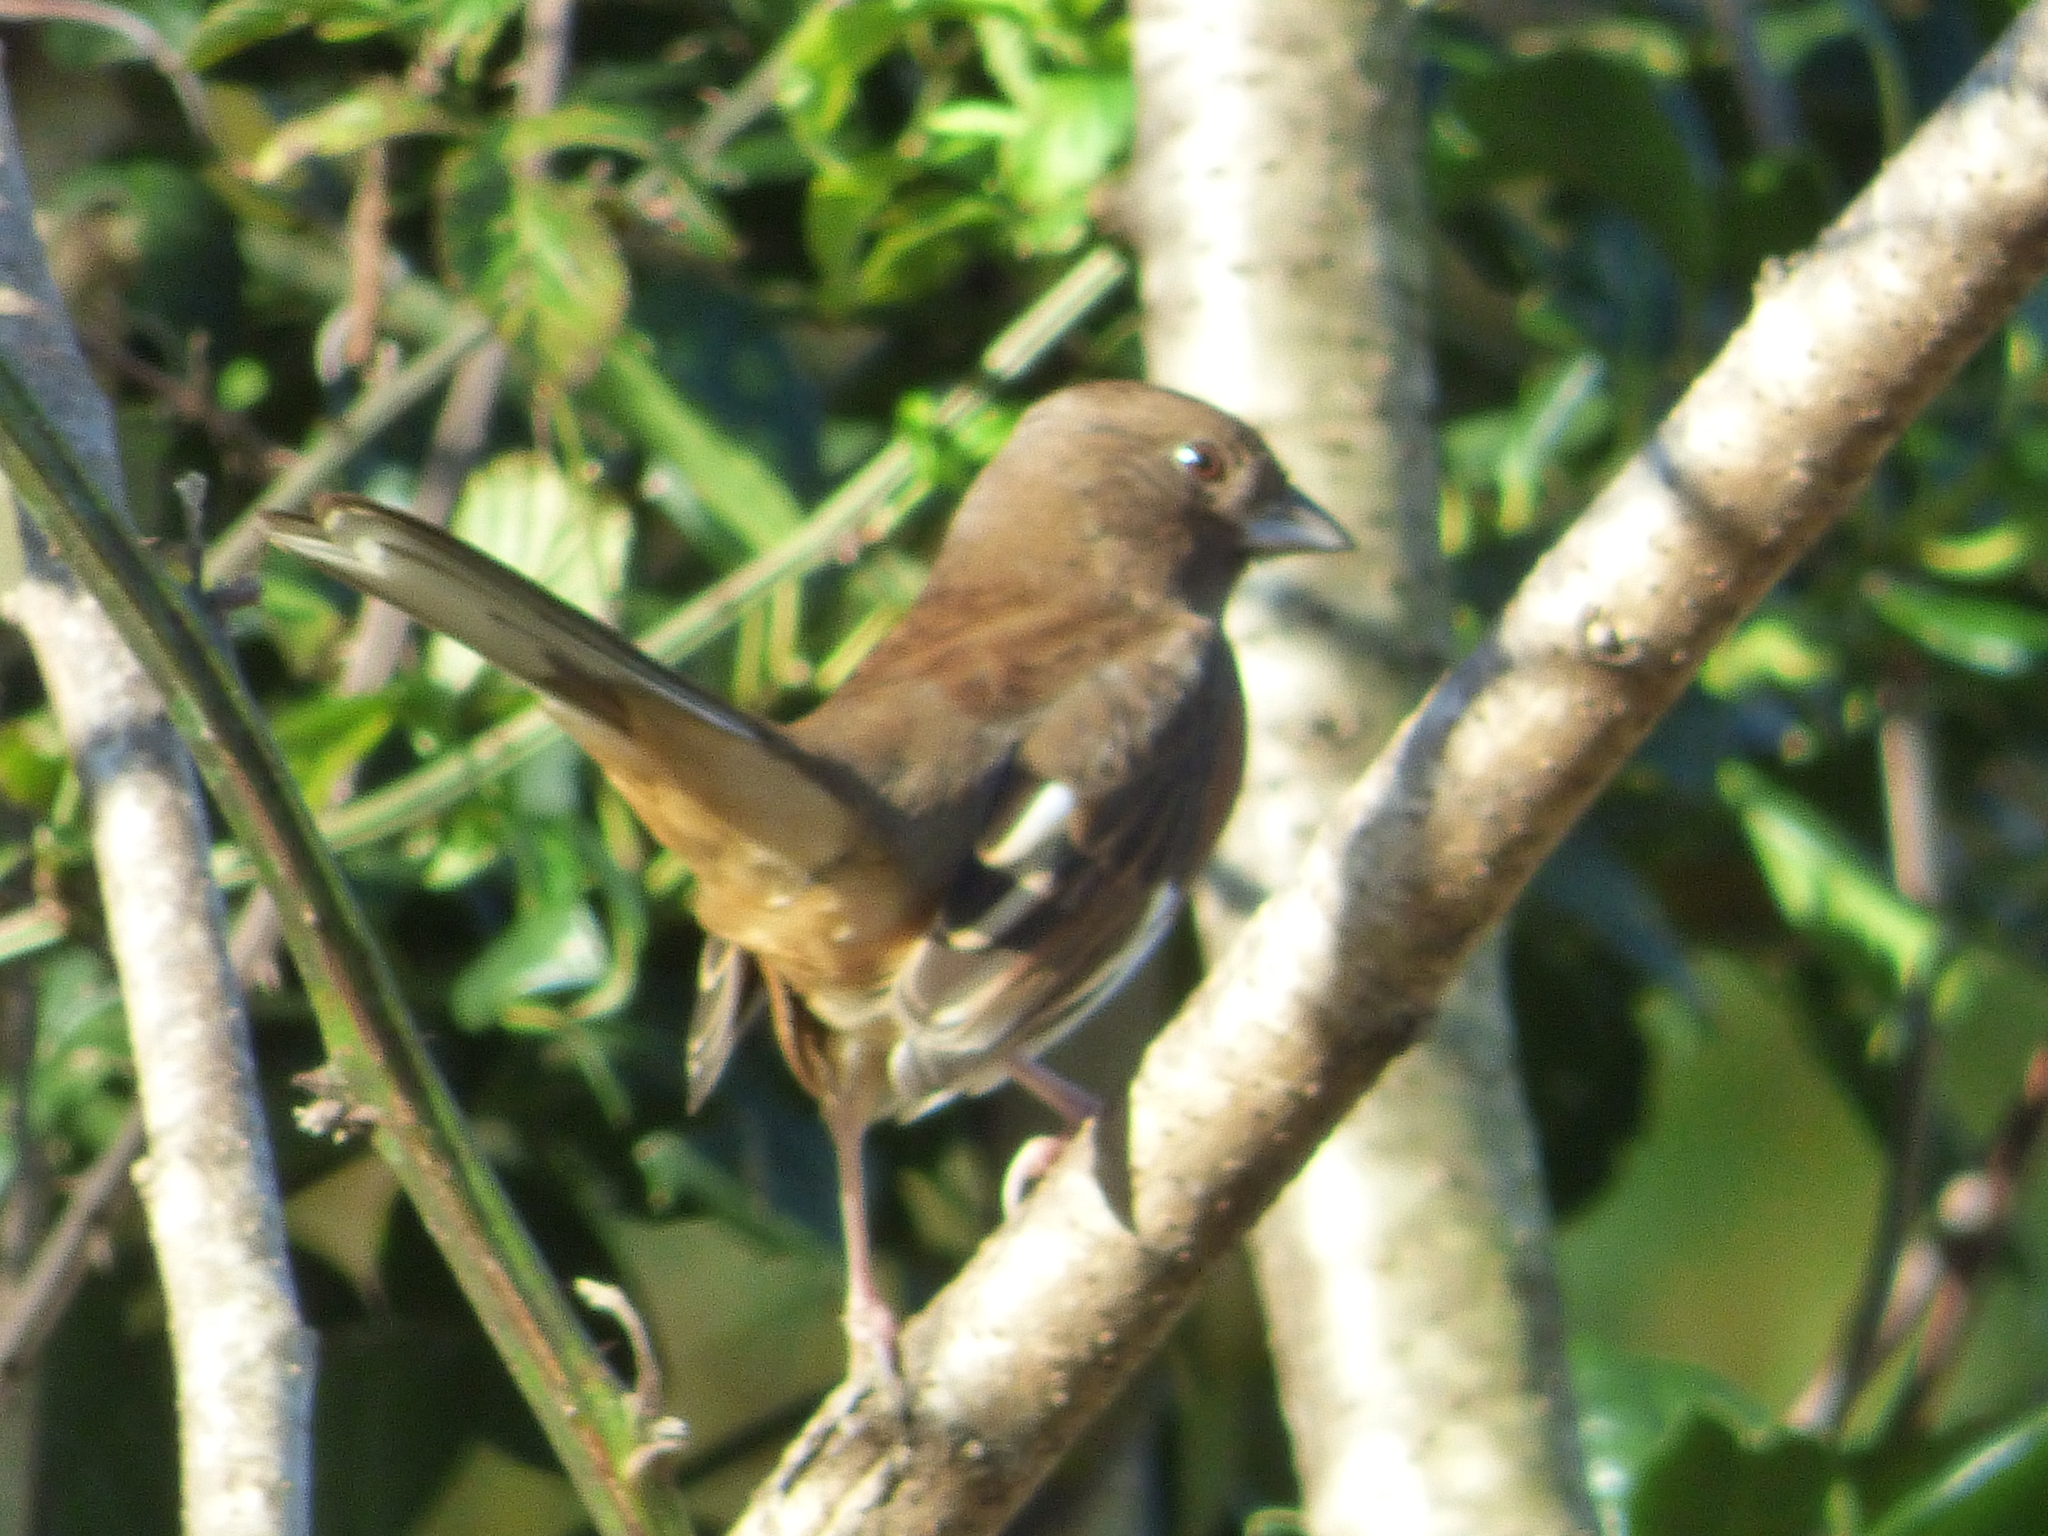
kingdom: Animalia
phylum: Chordata
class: Aves
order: Passeriformes
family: Passerellidae
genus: Pipilo
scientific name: Pipilo erythrophthalmus
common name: Eastern towhee
